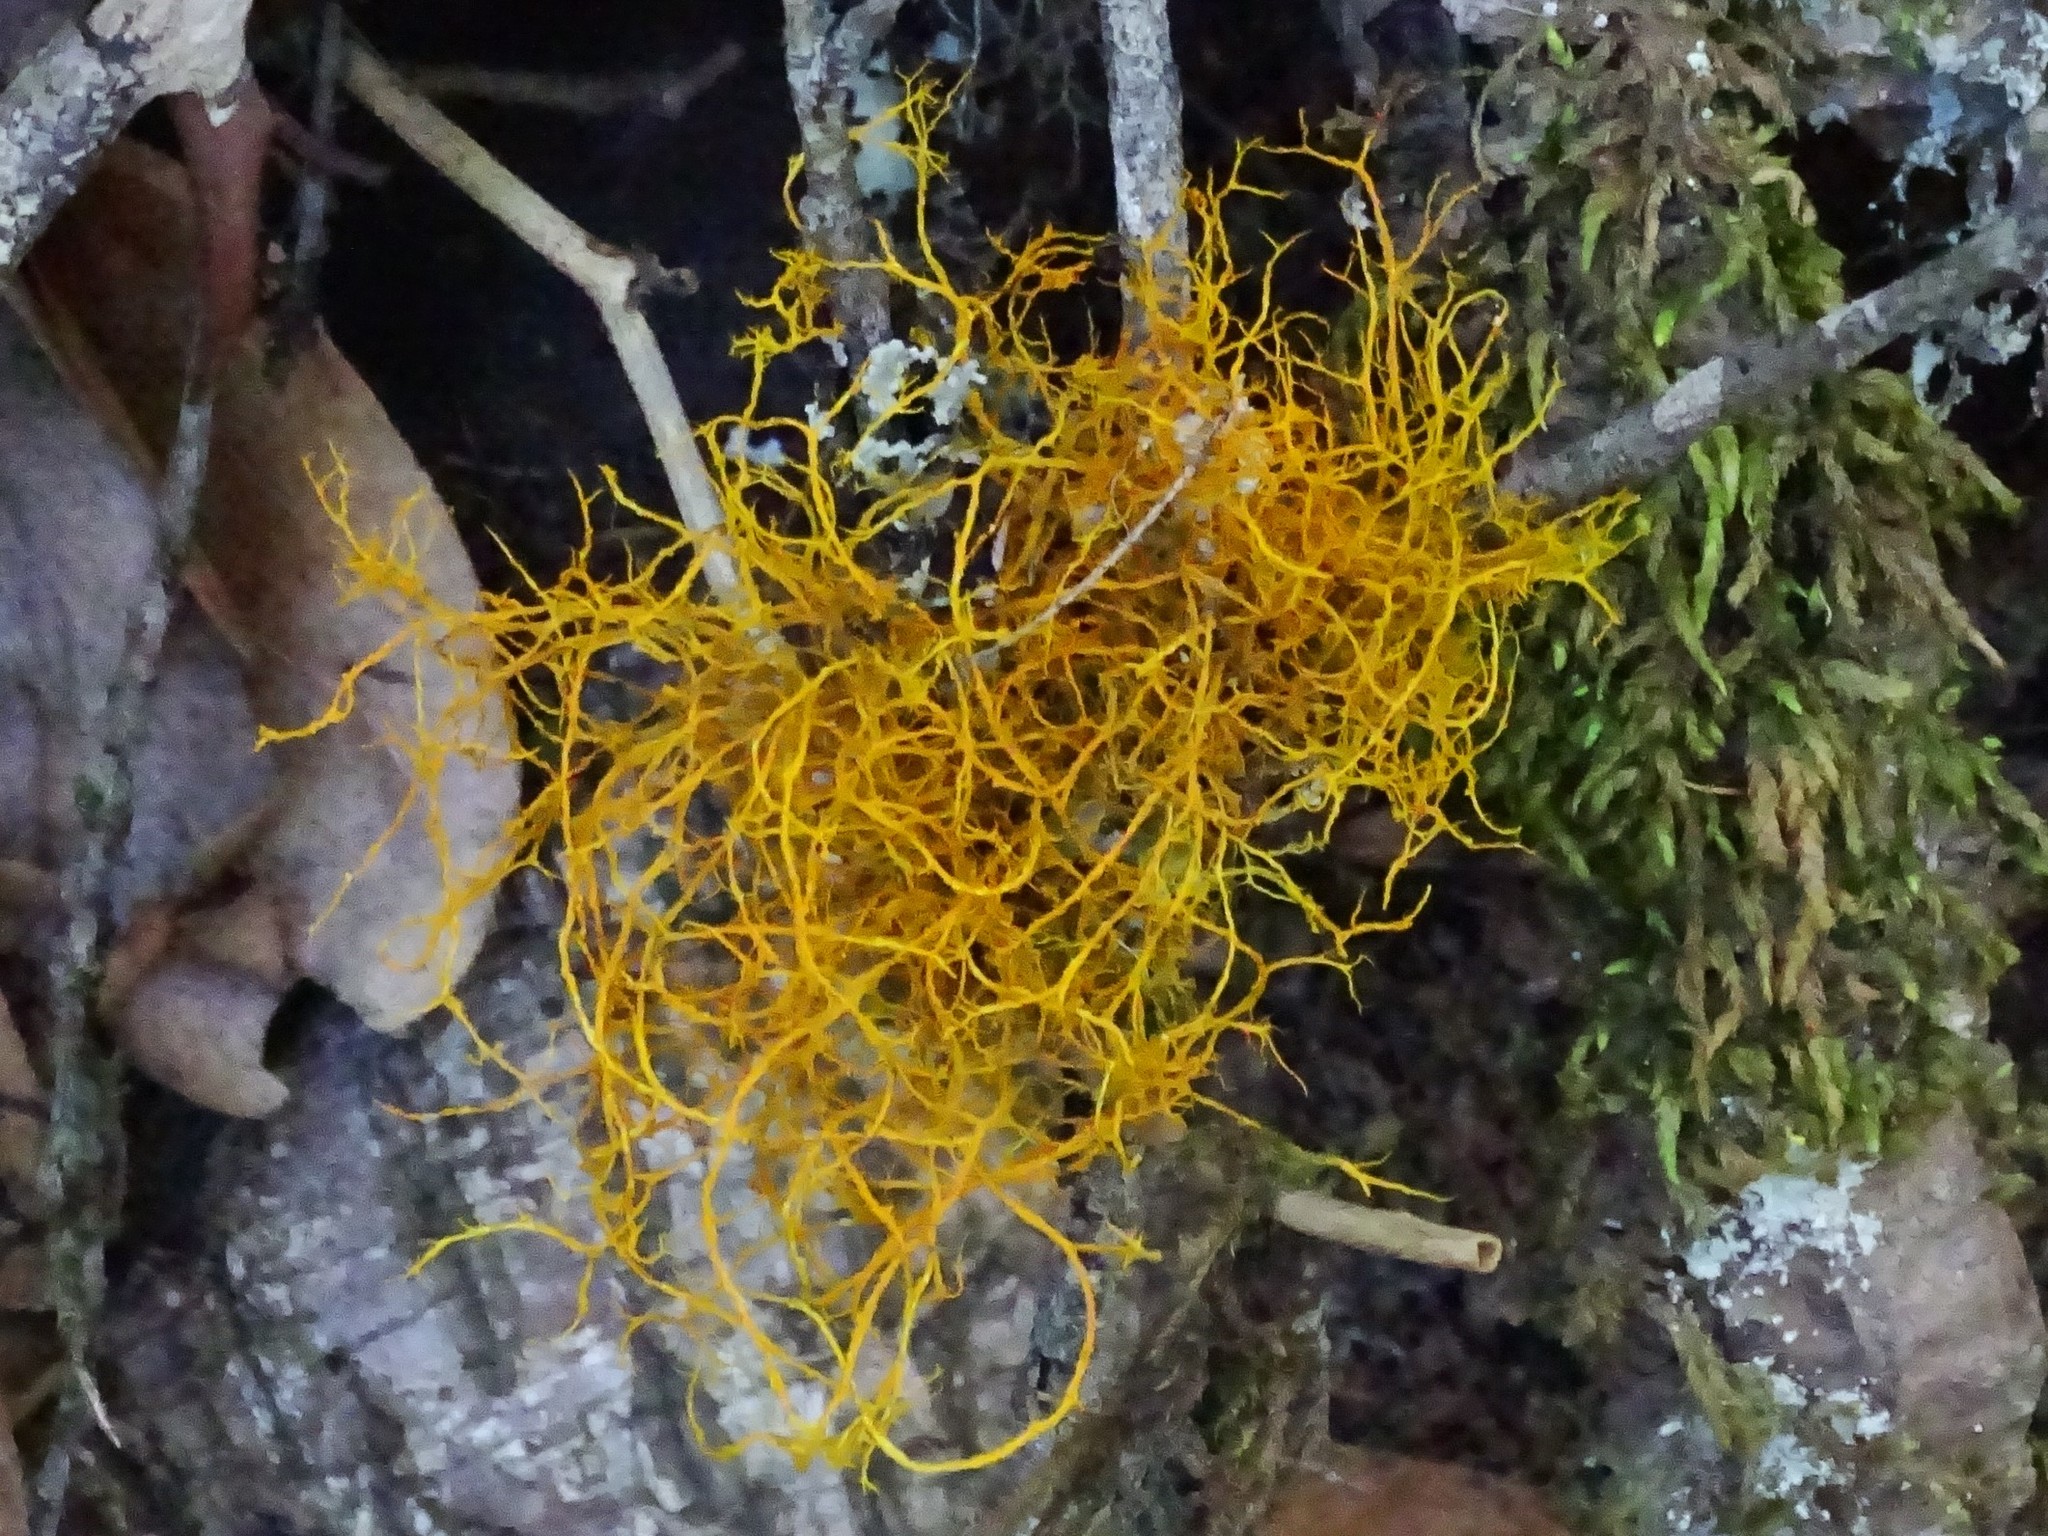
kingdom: Fungi
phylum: Ascomycota
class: Lecanoromycetes
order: Teloschistales
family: Teloschistaceae
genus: Teloschistes
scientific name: Teloschistes flavicans
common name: Golden hair-lichen
